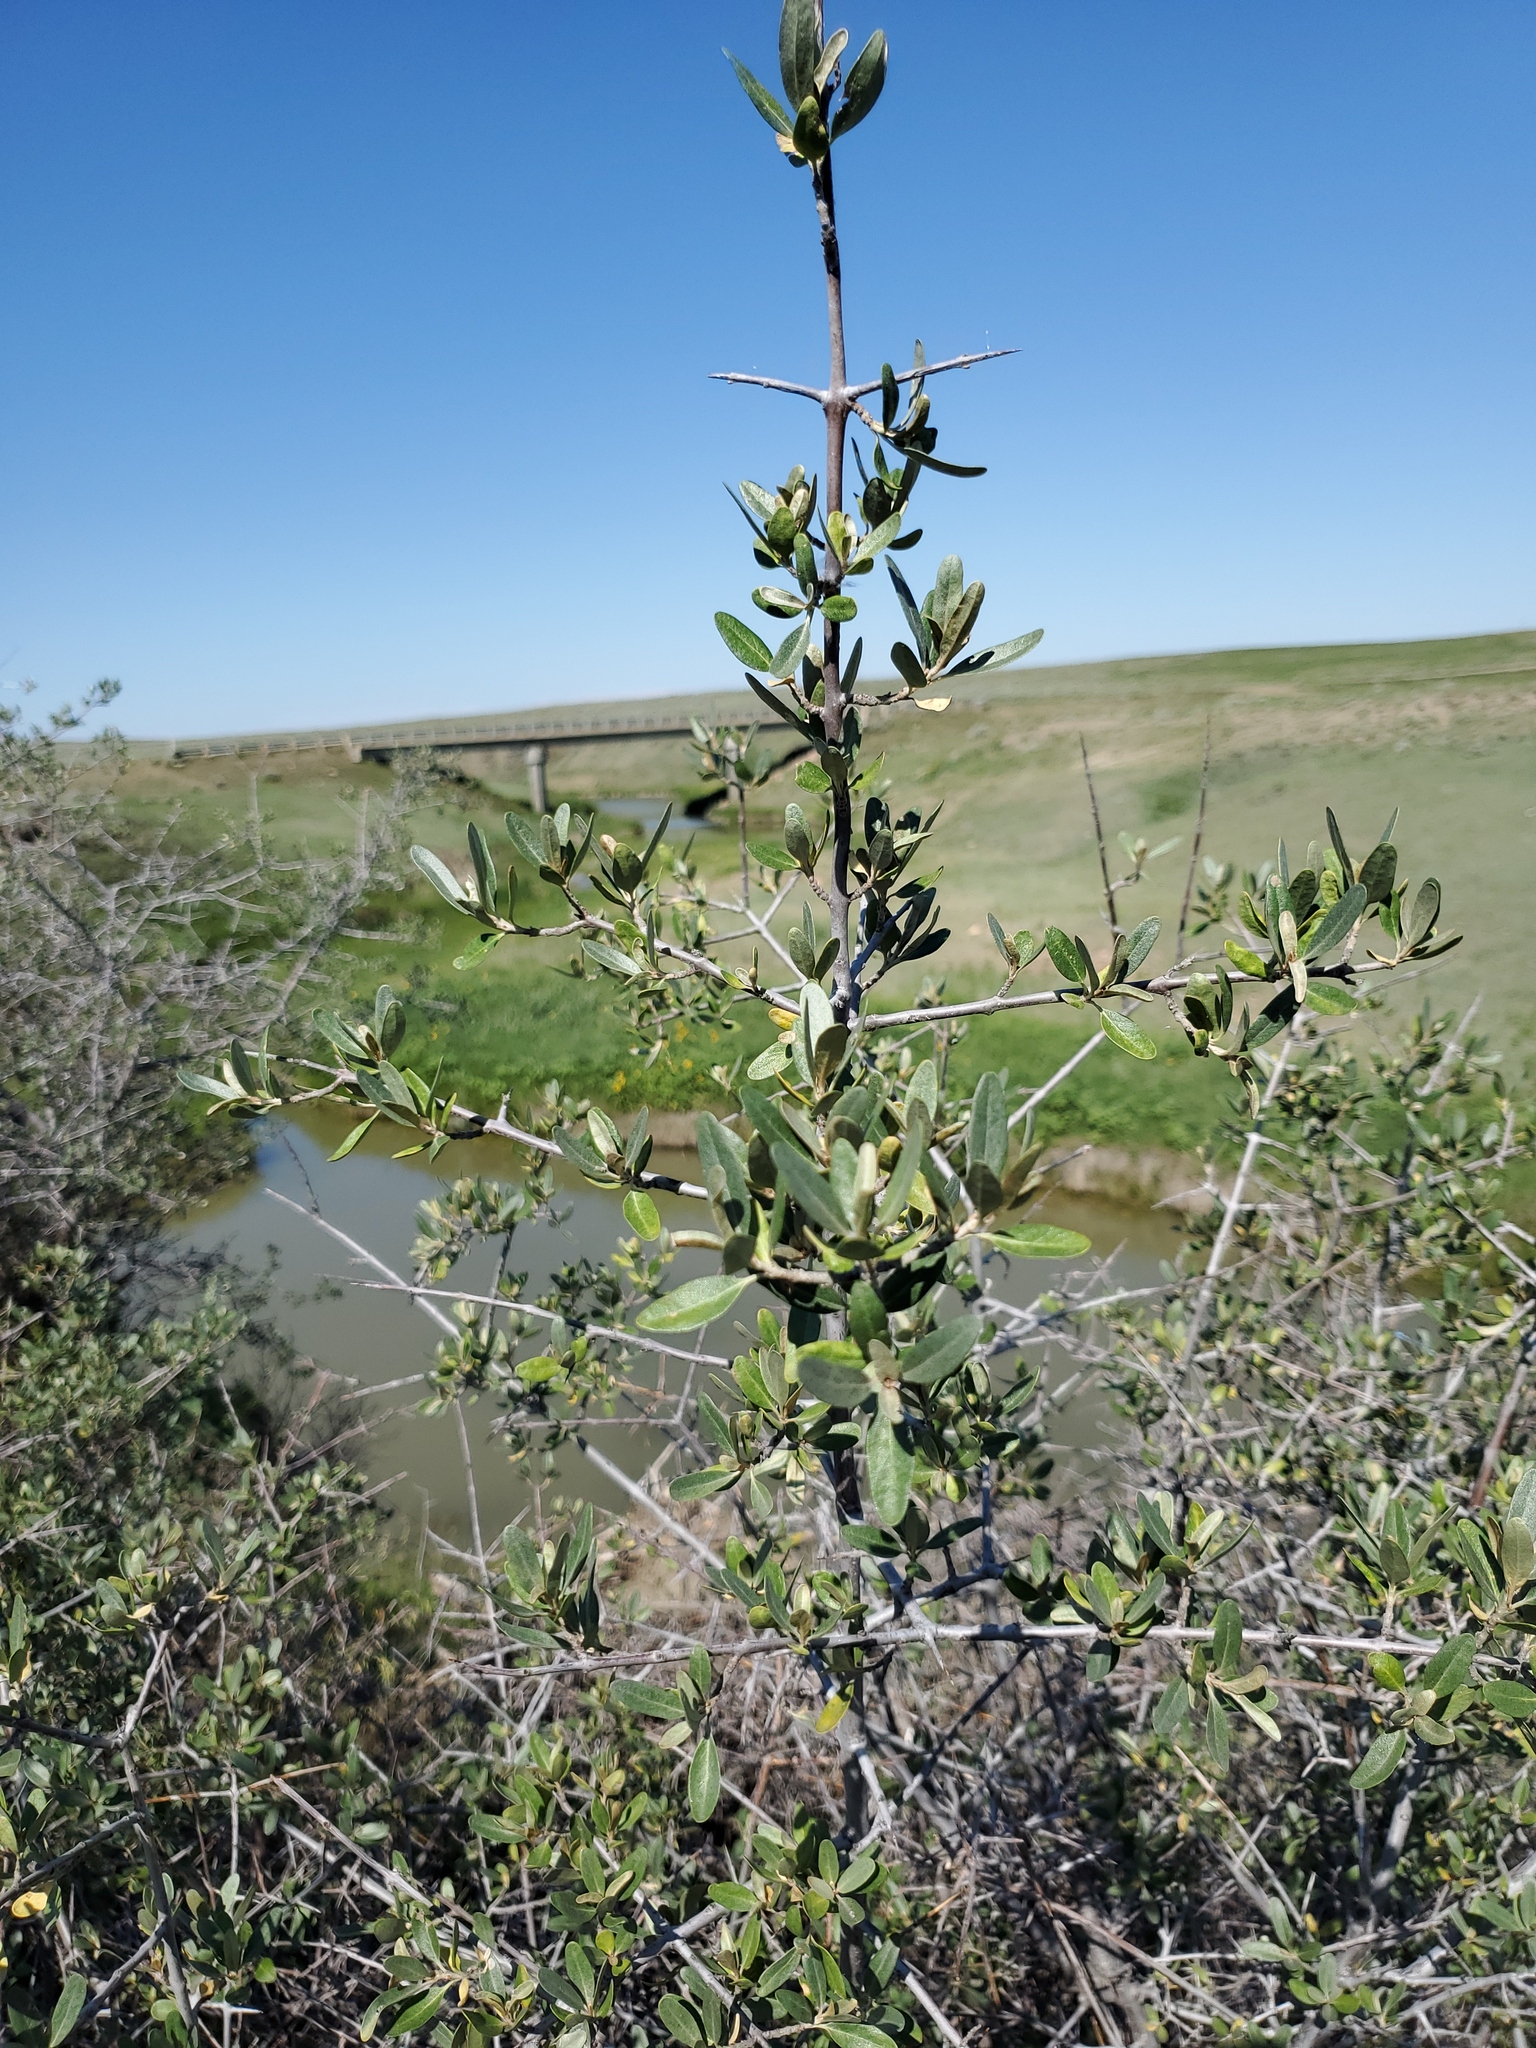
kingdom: Plantae
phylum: Tracheophyta
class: Magnoliopsida
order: Rosales
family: Elaeagnaceae
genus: Shepherdia
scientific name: Shepherdia argentea
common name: Silver buffaloberry
